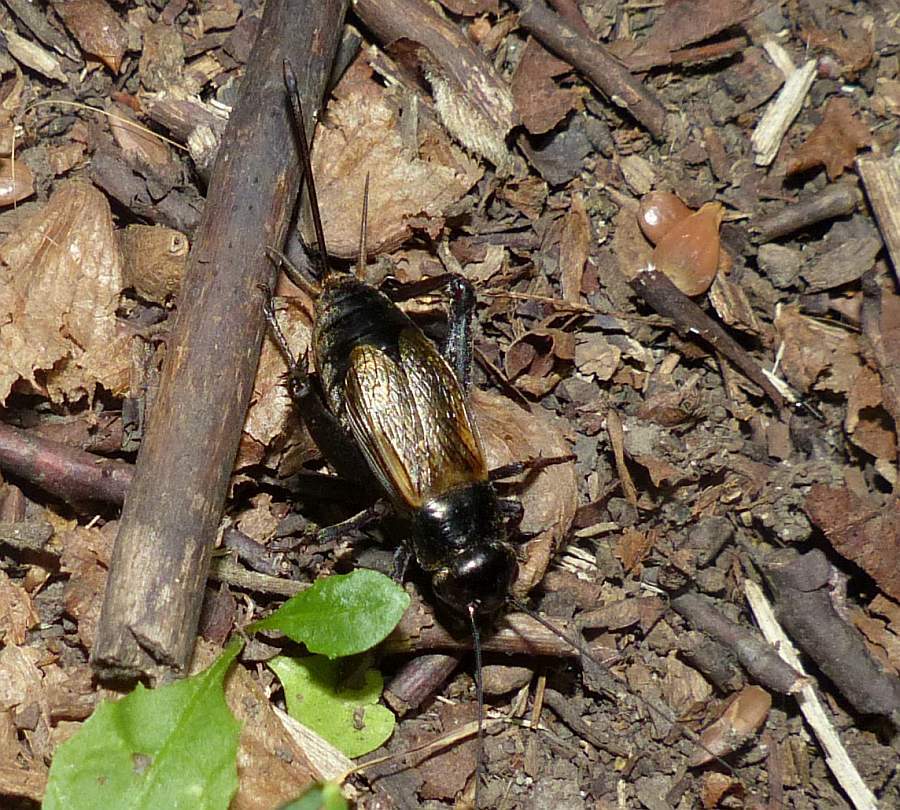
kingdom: Animalia
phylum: Arthropoda
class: Insecta
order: Orthoptera
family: Gryllidae
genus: Gryllus
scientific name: Gryllus pennsylvanicus
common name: Fall field cricket
